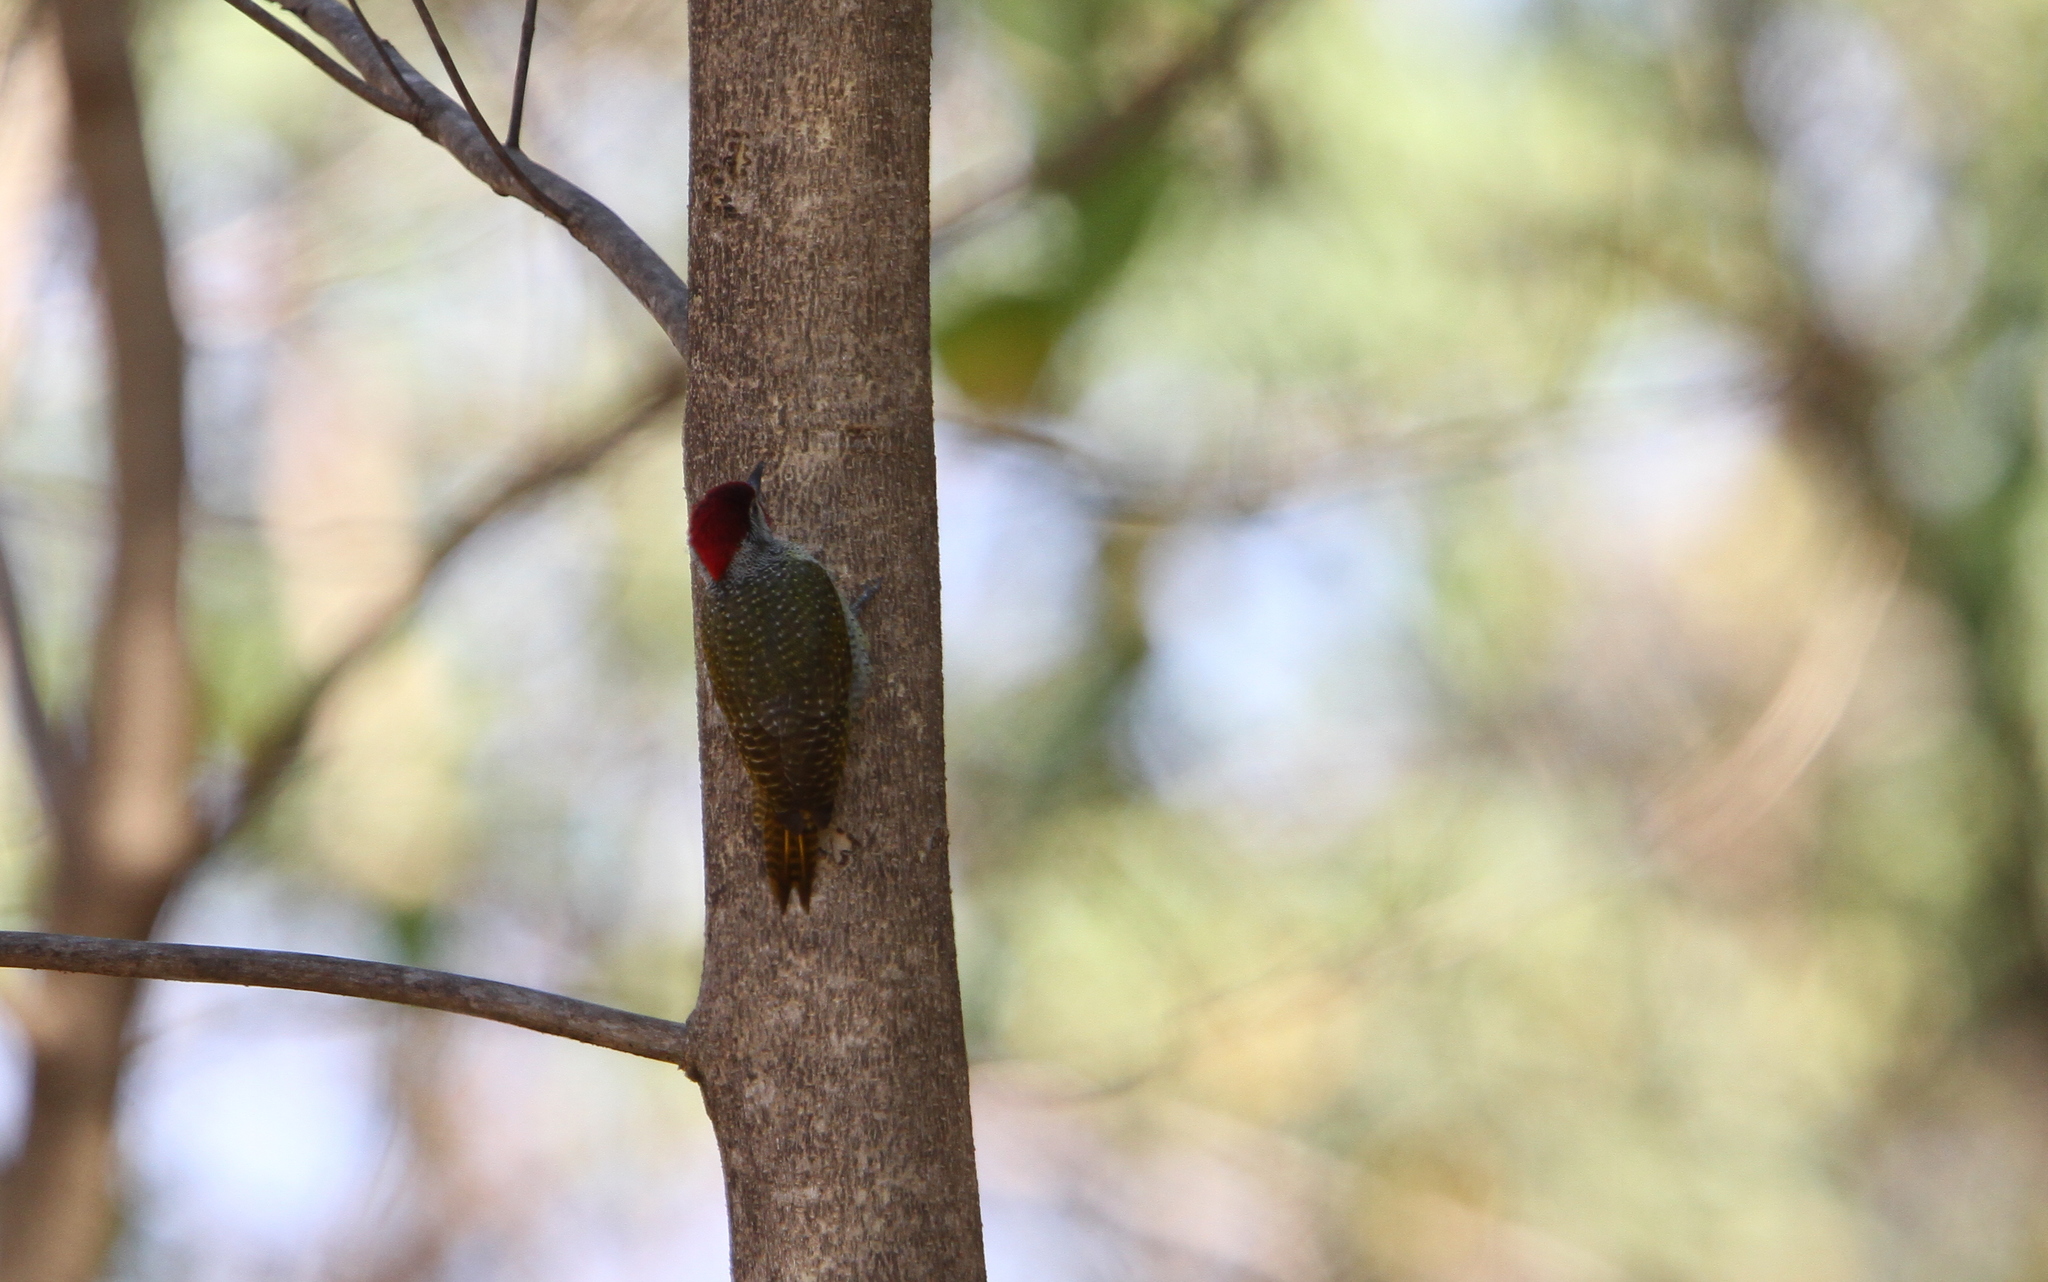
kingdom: Animalia
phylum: Chordata
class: Aves
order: Piciformes
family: Picidae
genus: Campethera
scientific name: Campethera punctuligera
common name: Fine-spotted woodpecker
